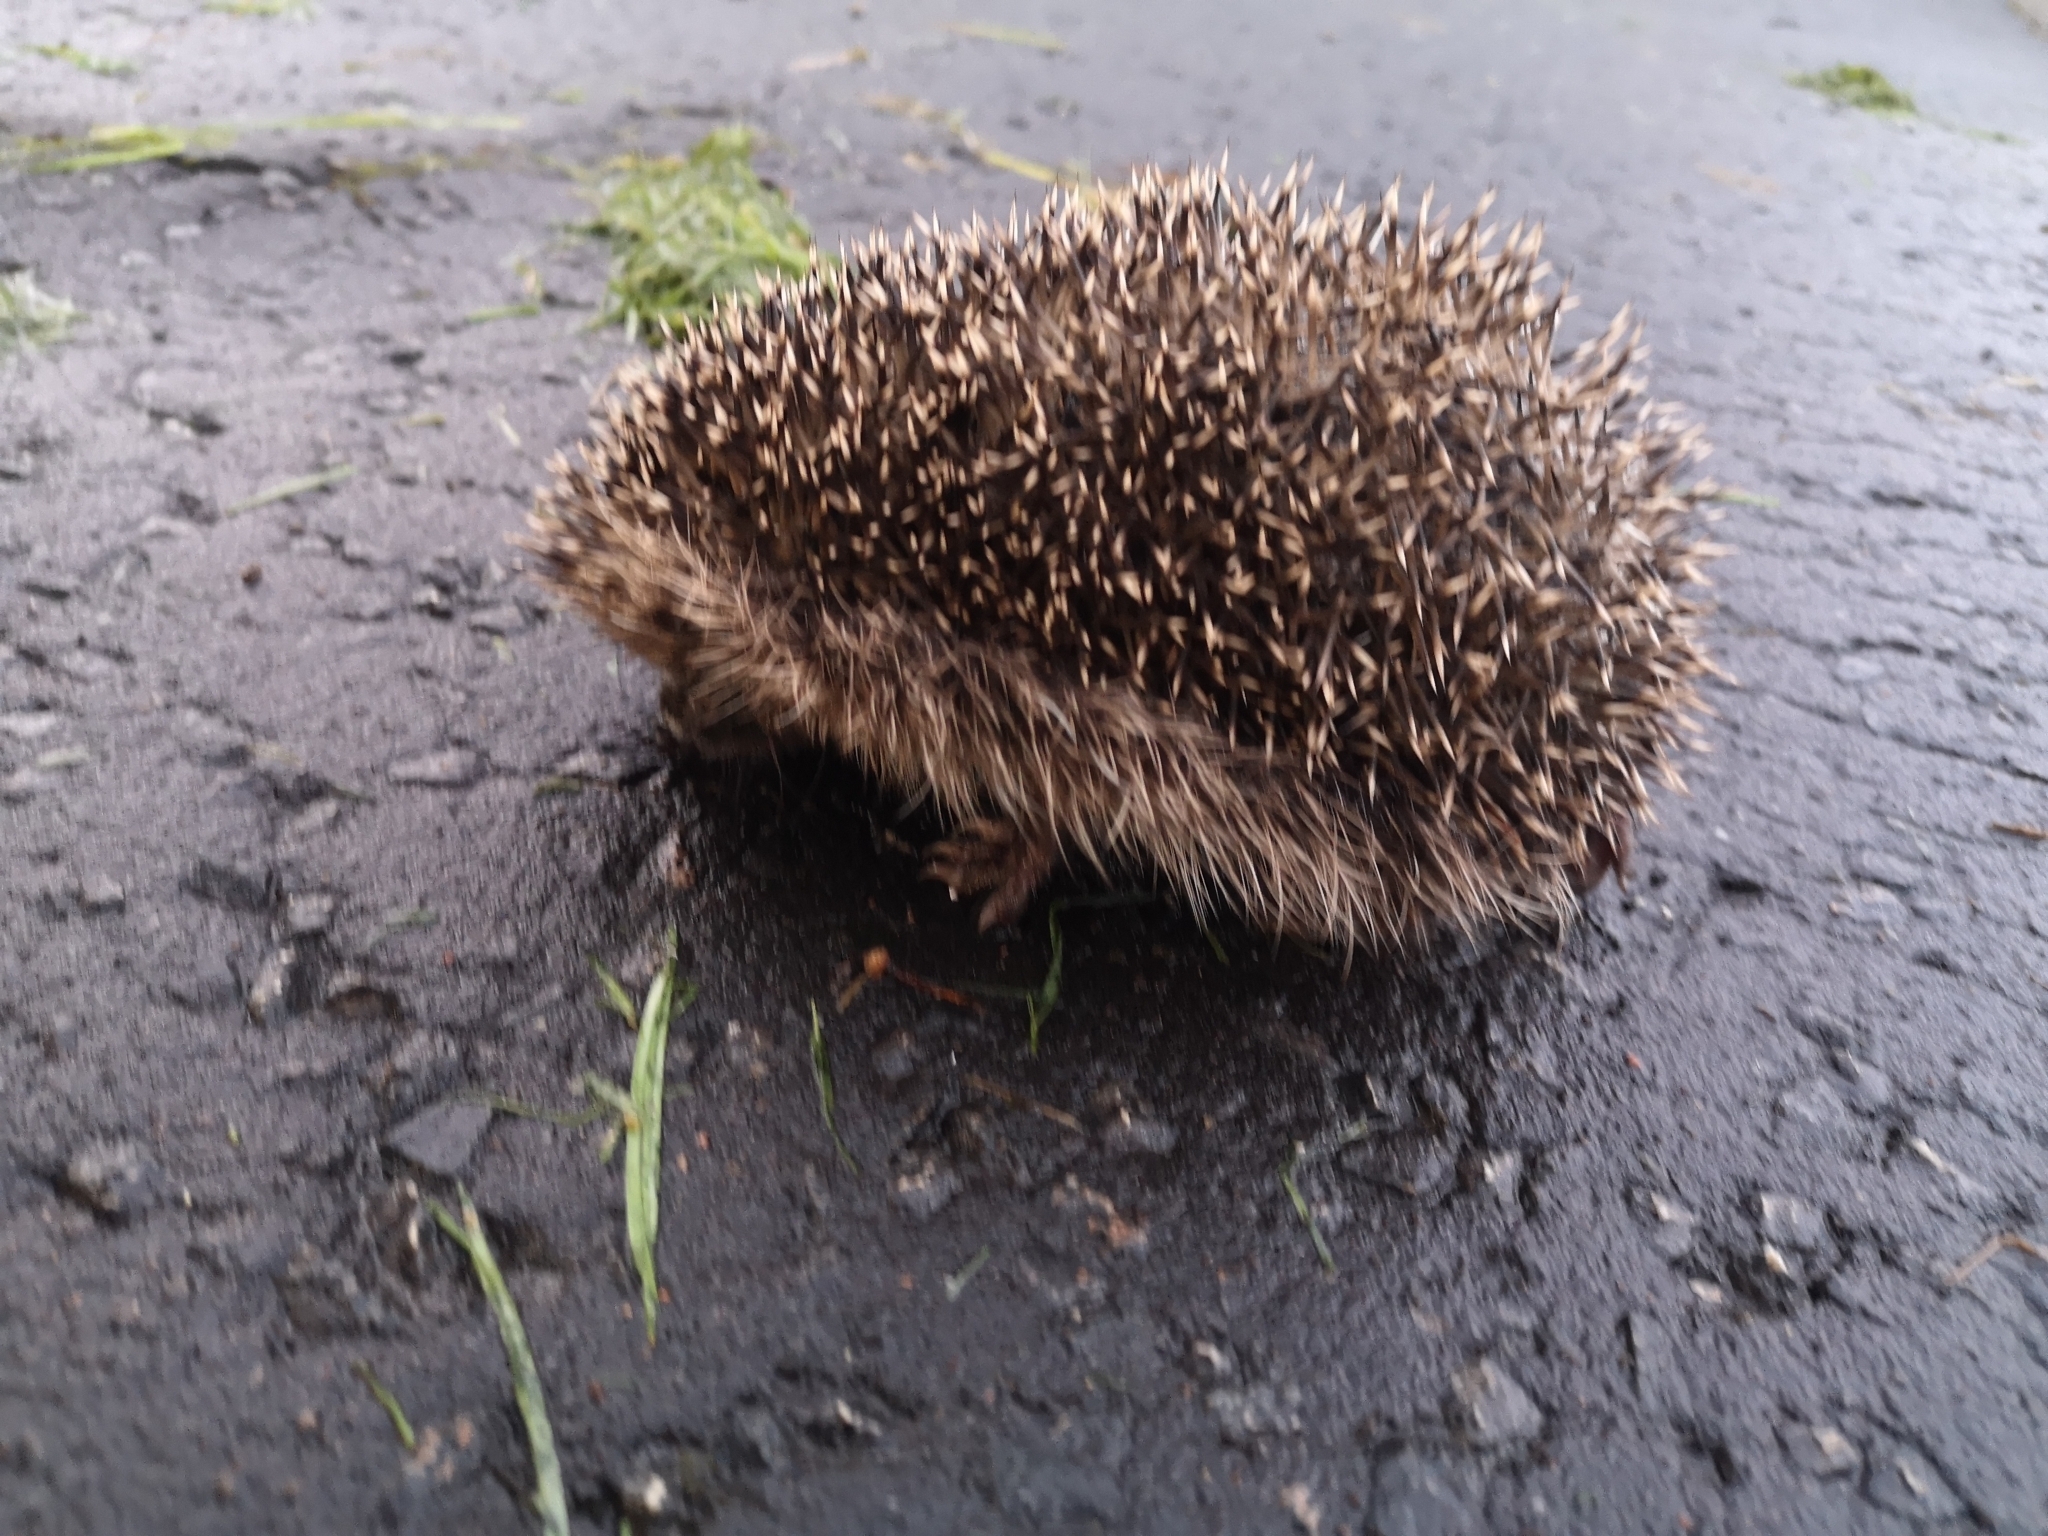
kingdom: Animalia
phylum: Chordata
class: Mammalia
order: Erinaceomorpha
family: Erinaceidae
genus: Erinaceus
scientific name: Erinaceus europaeus
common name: West european hedgehog
